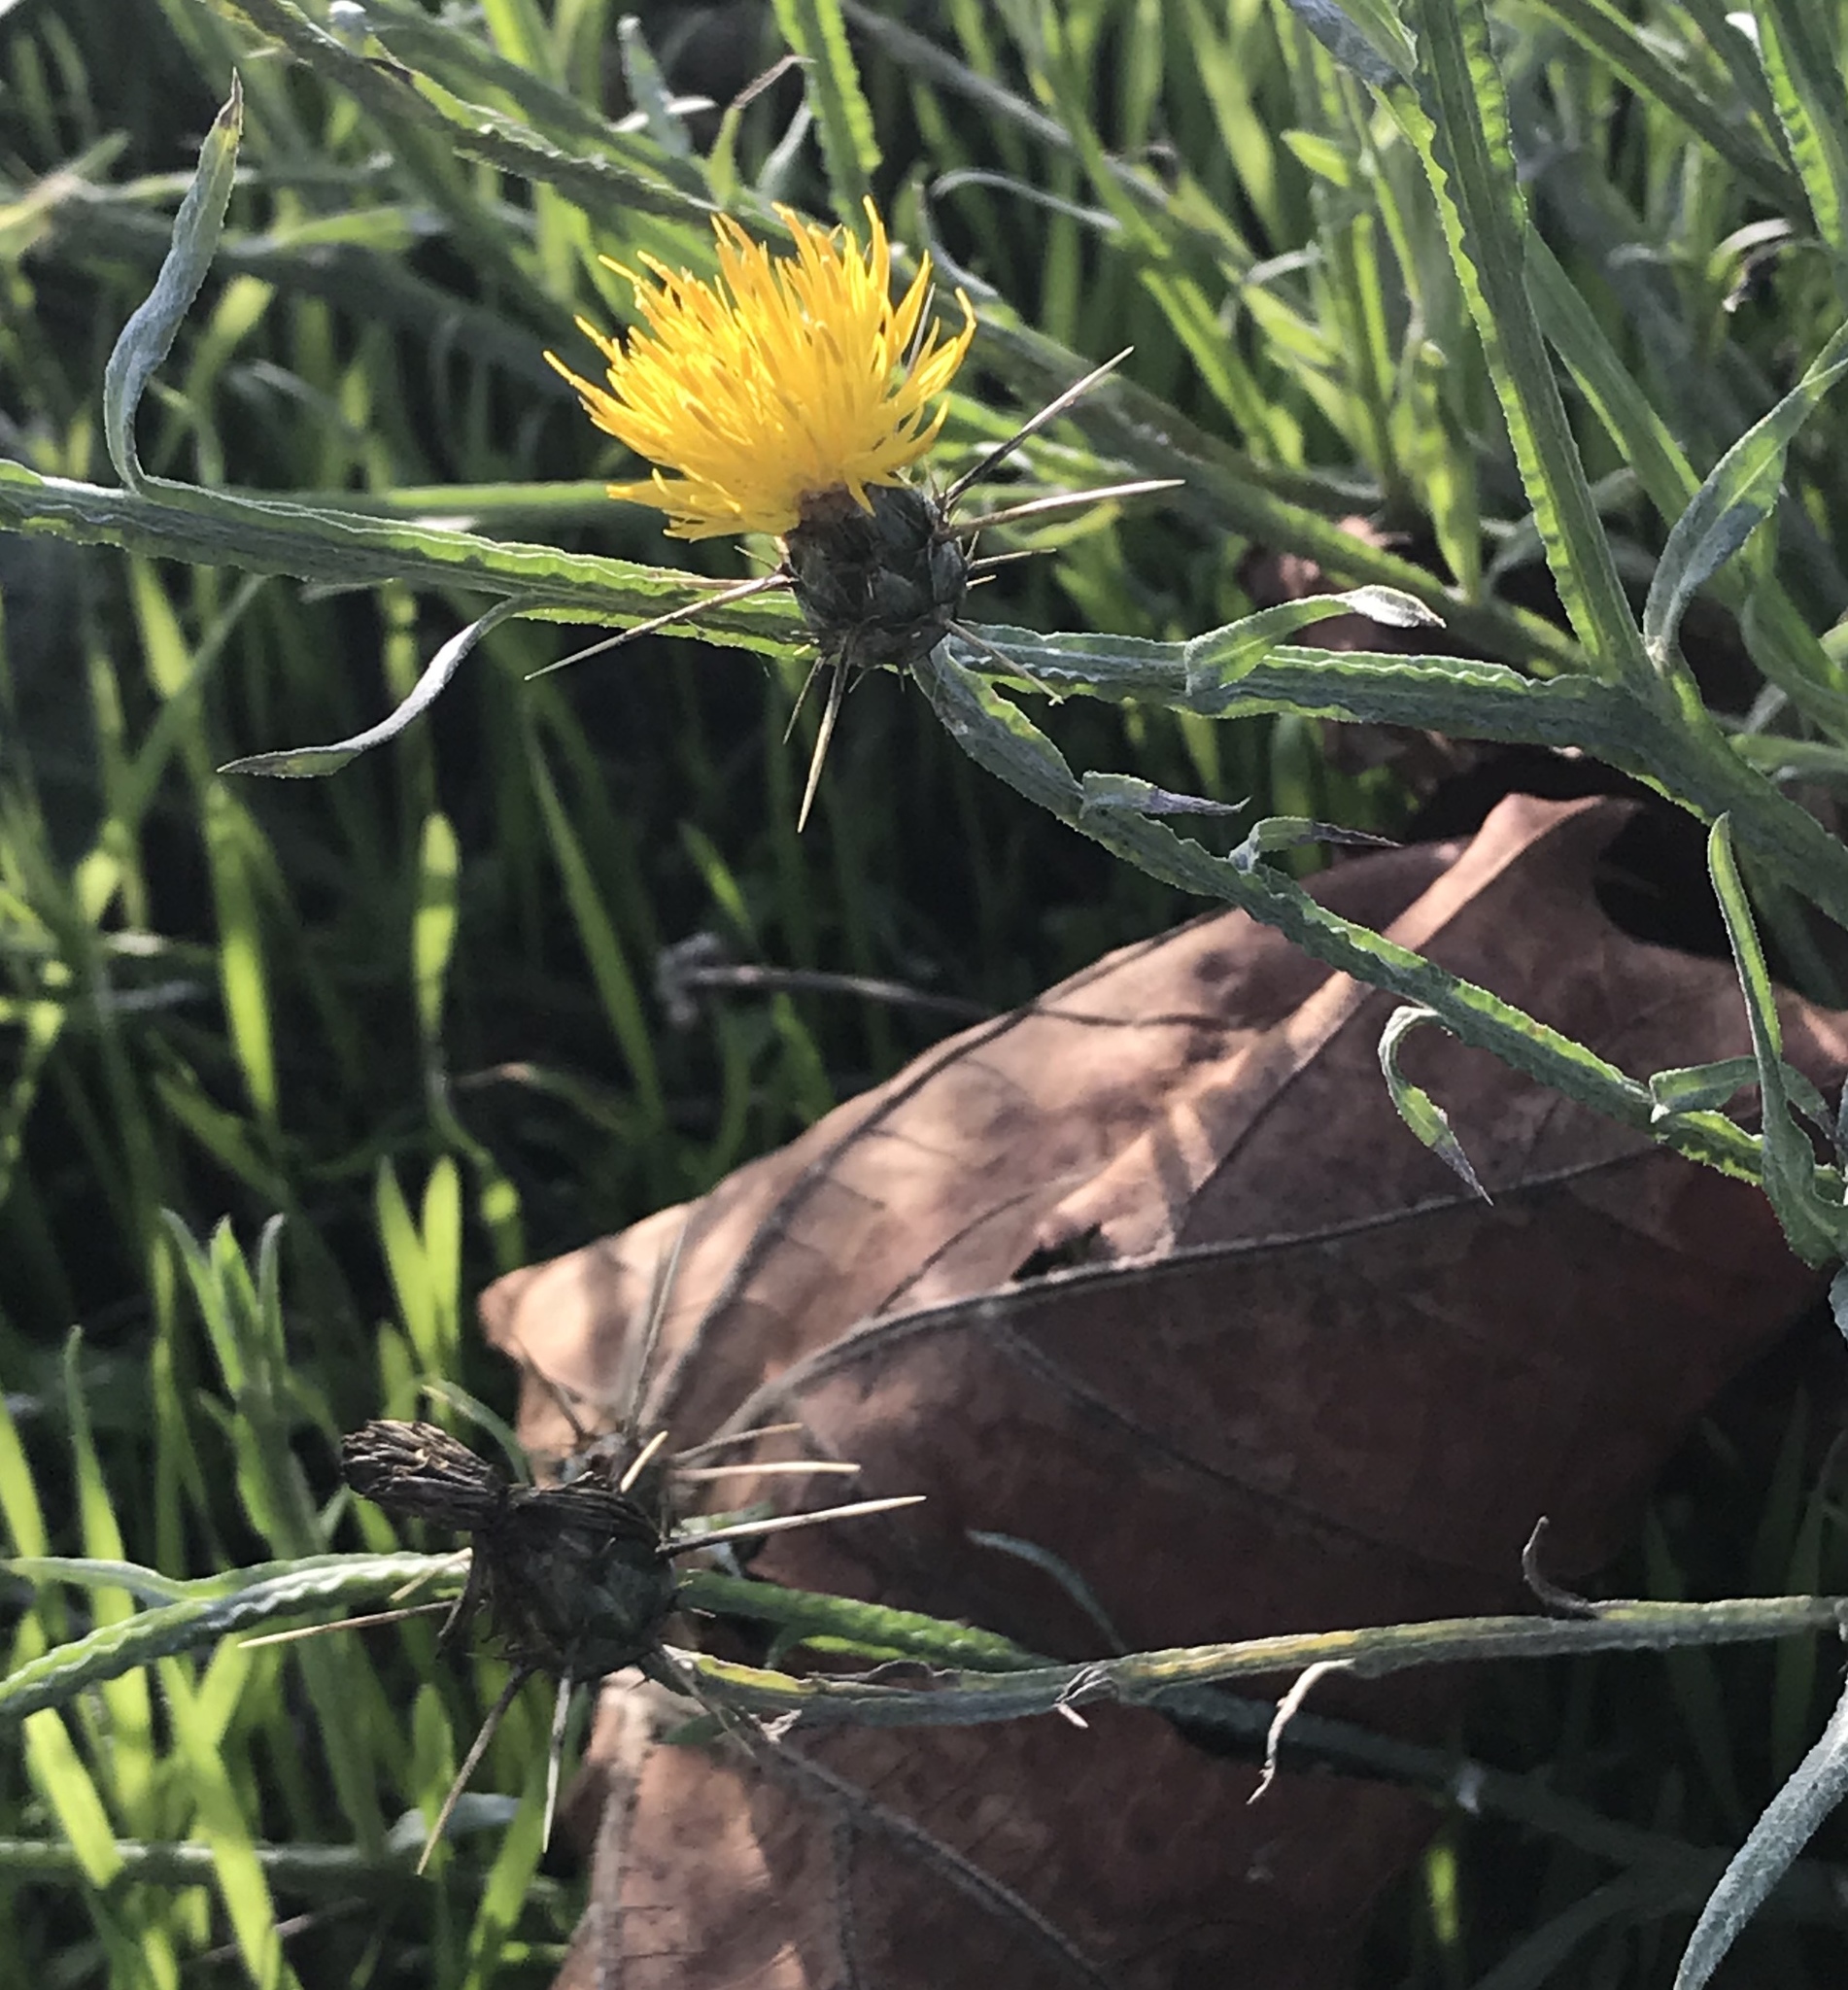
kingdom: Plantae
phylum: Tracheophyta
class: Magnoliopsida
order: Asterales
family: Asteraceae
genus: Centaurea
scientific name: Centaurea solstitialis
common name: Yellow star-thistle
